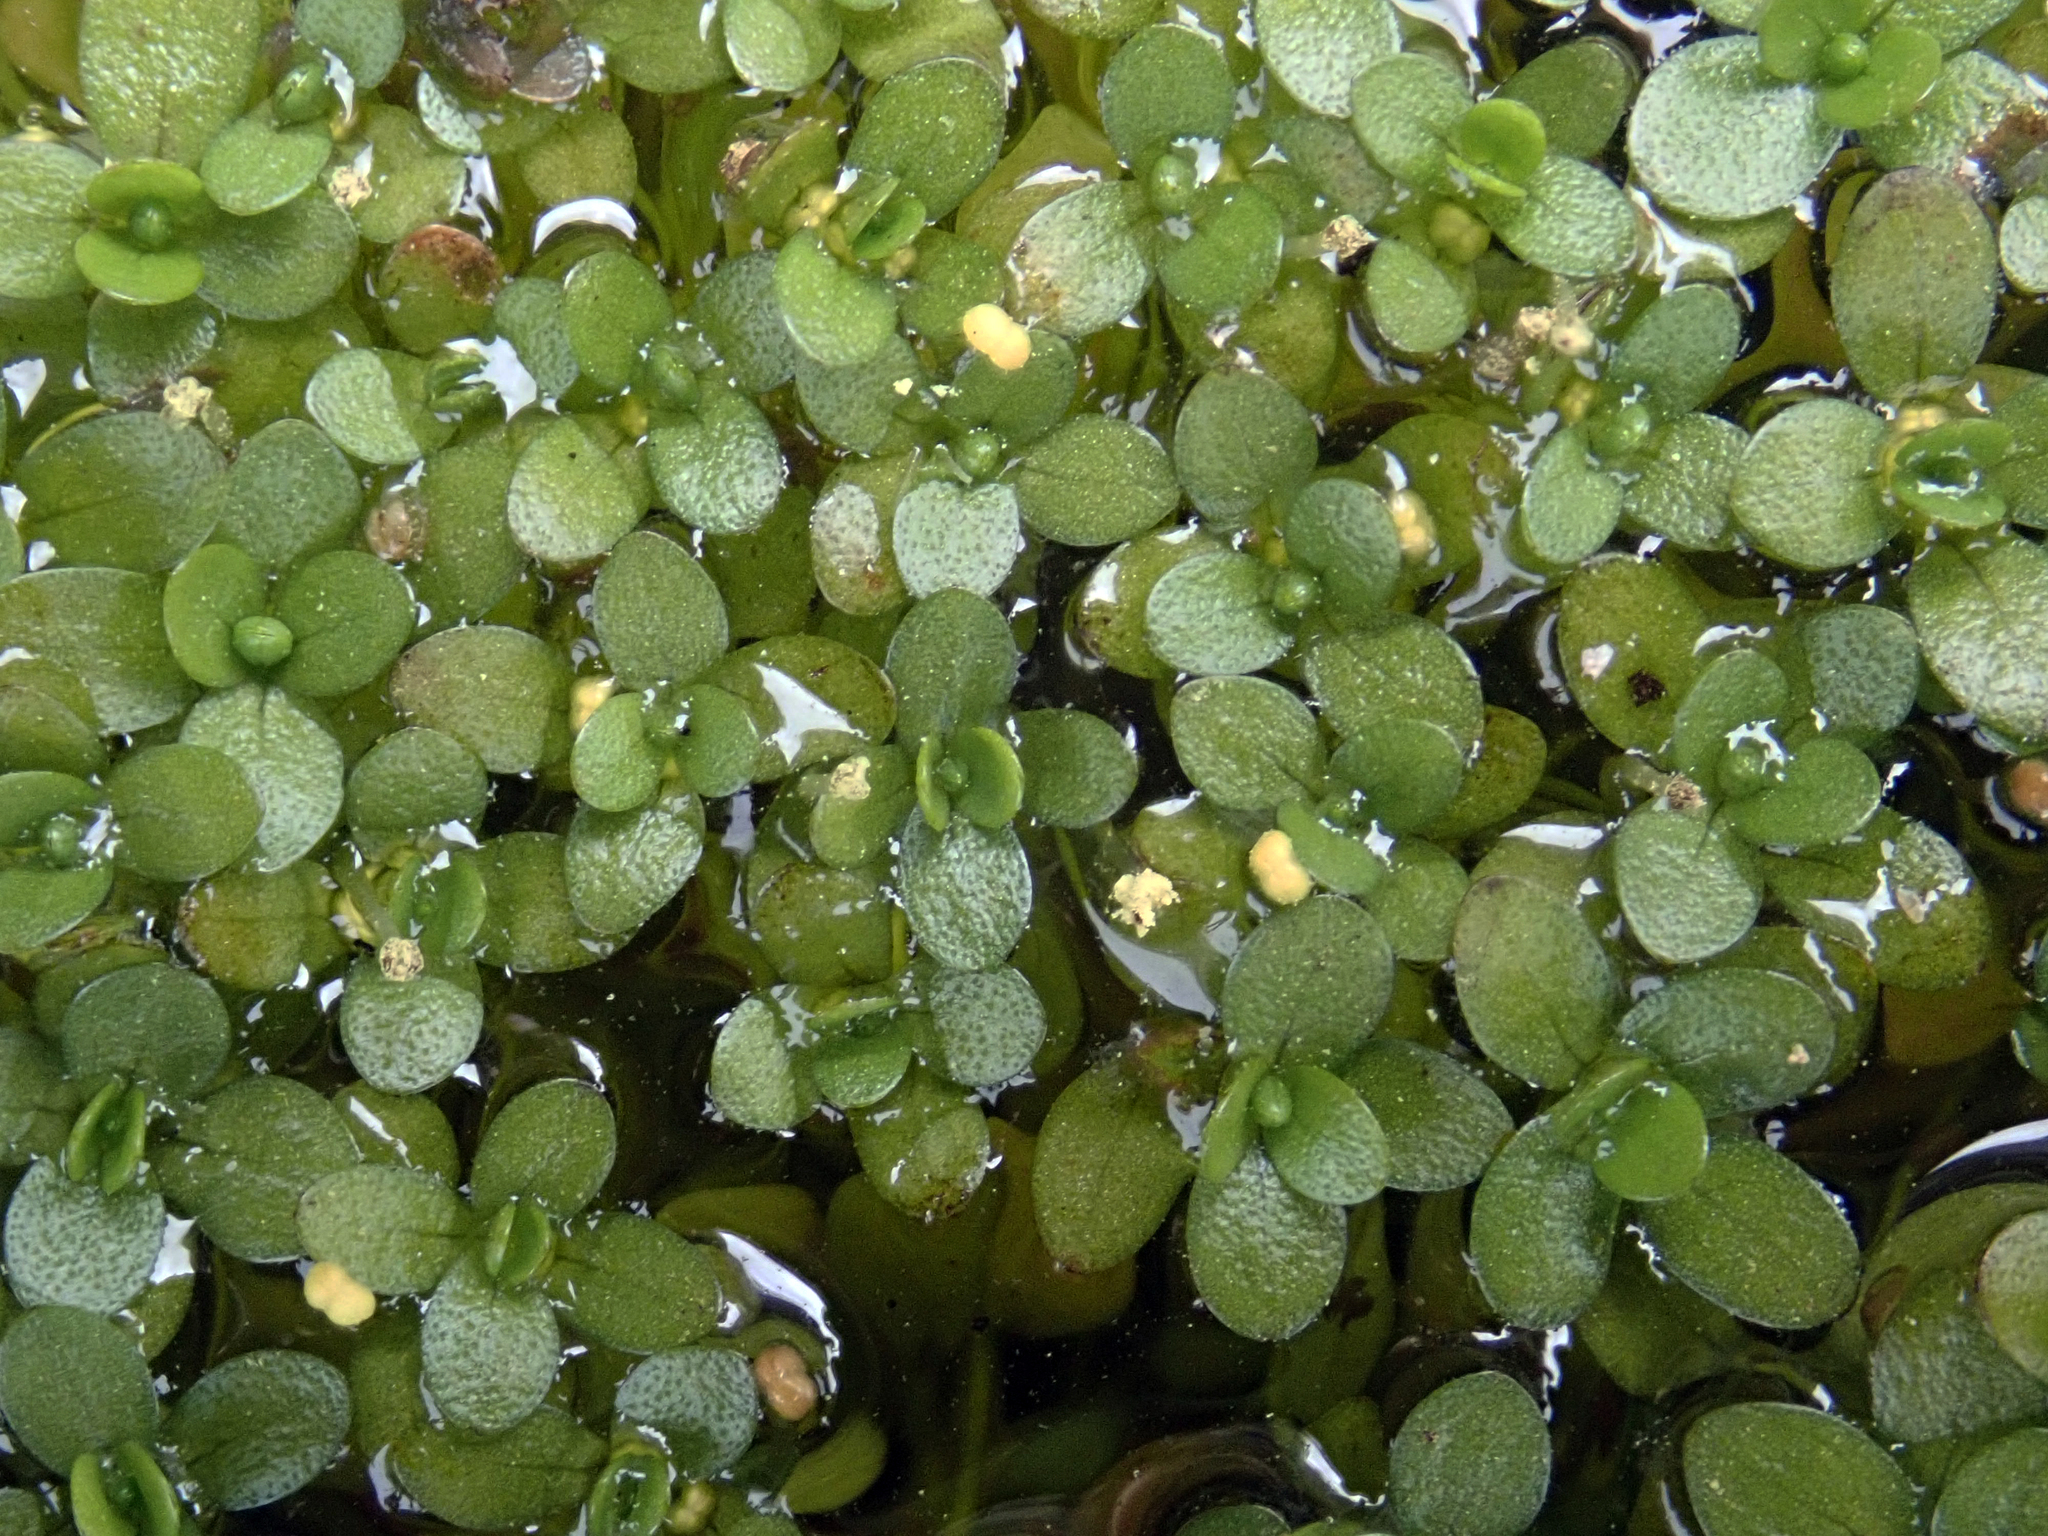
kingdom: Plantae
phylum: Tracheophyta
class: Magnoliopsida
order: Lamiales
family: Plantaginaceae
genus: Callitriche
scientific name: Callitriche chathamensis
